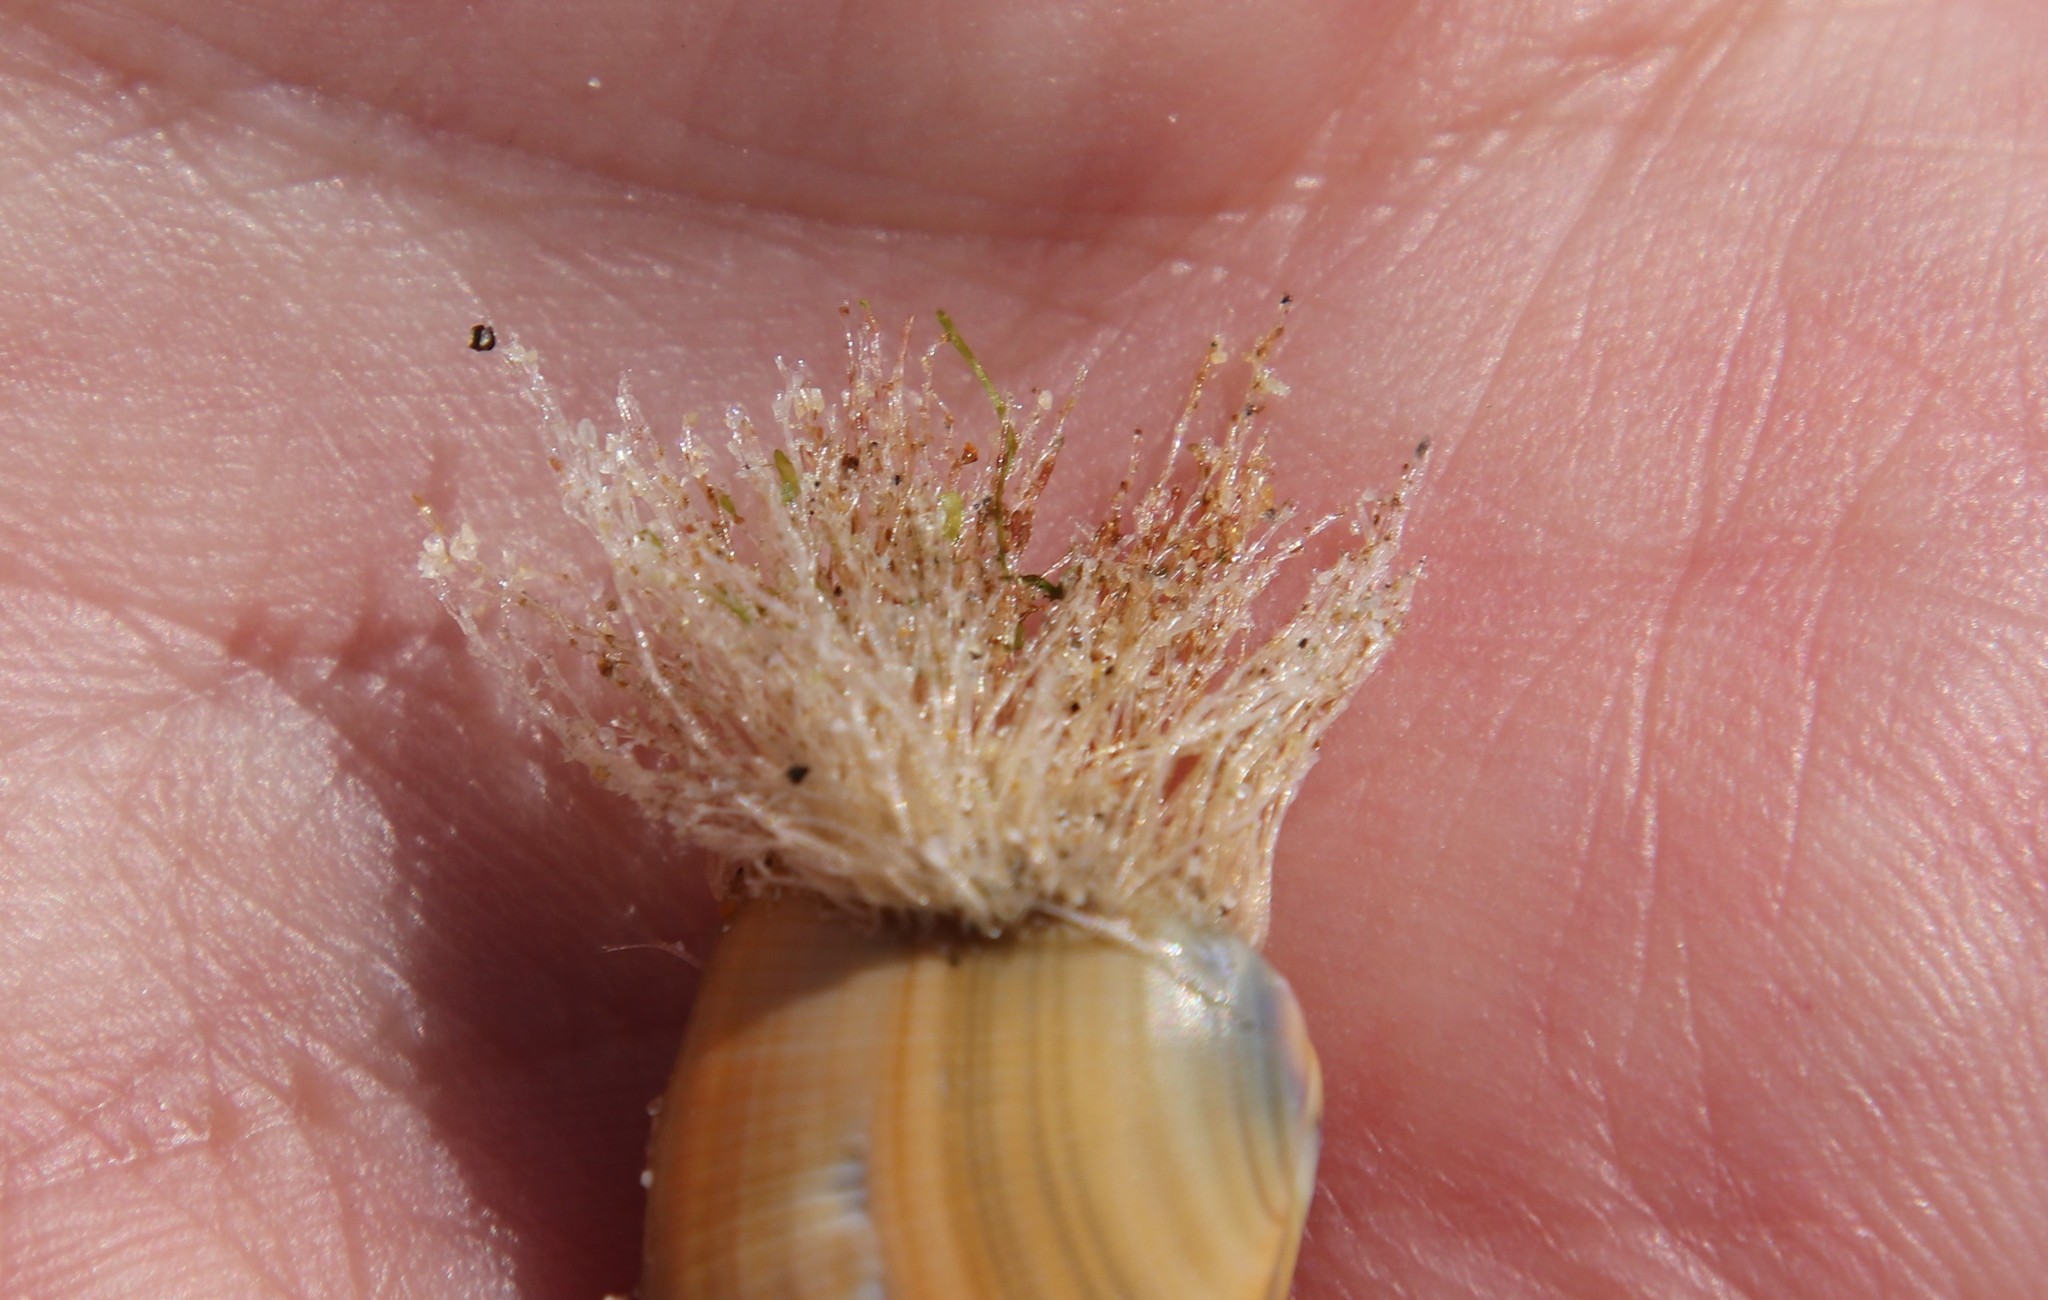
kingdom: Animalia
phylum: Cnidaria
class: Hydrozoa
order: Leptothecata
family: Lovenellidae
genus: Eucheilota
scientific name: Eucheilota bakeri
